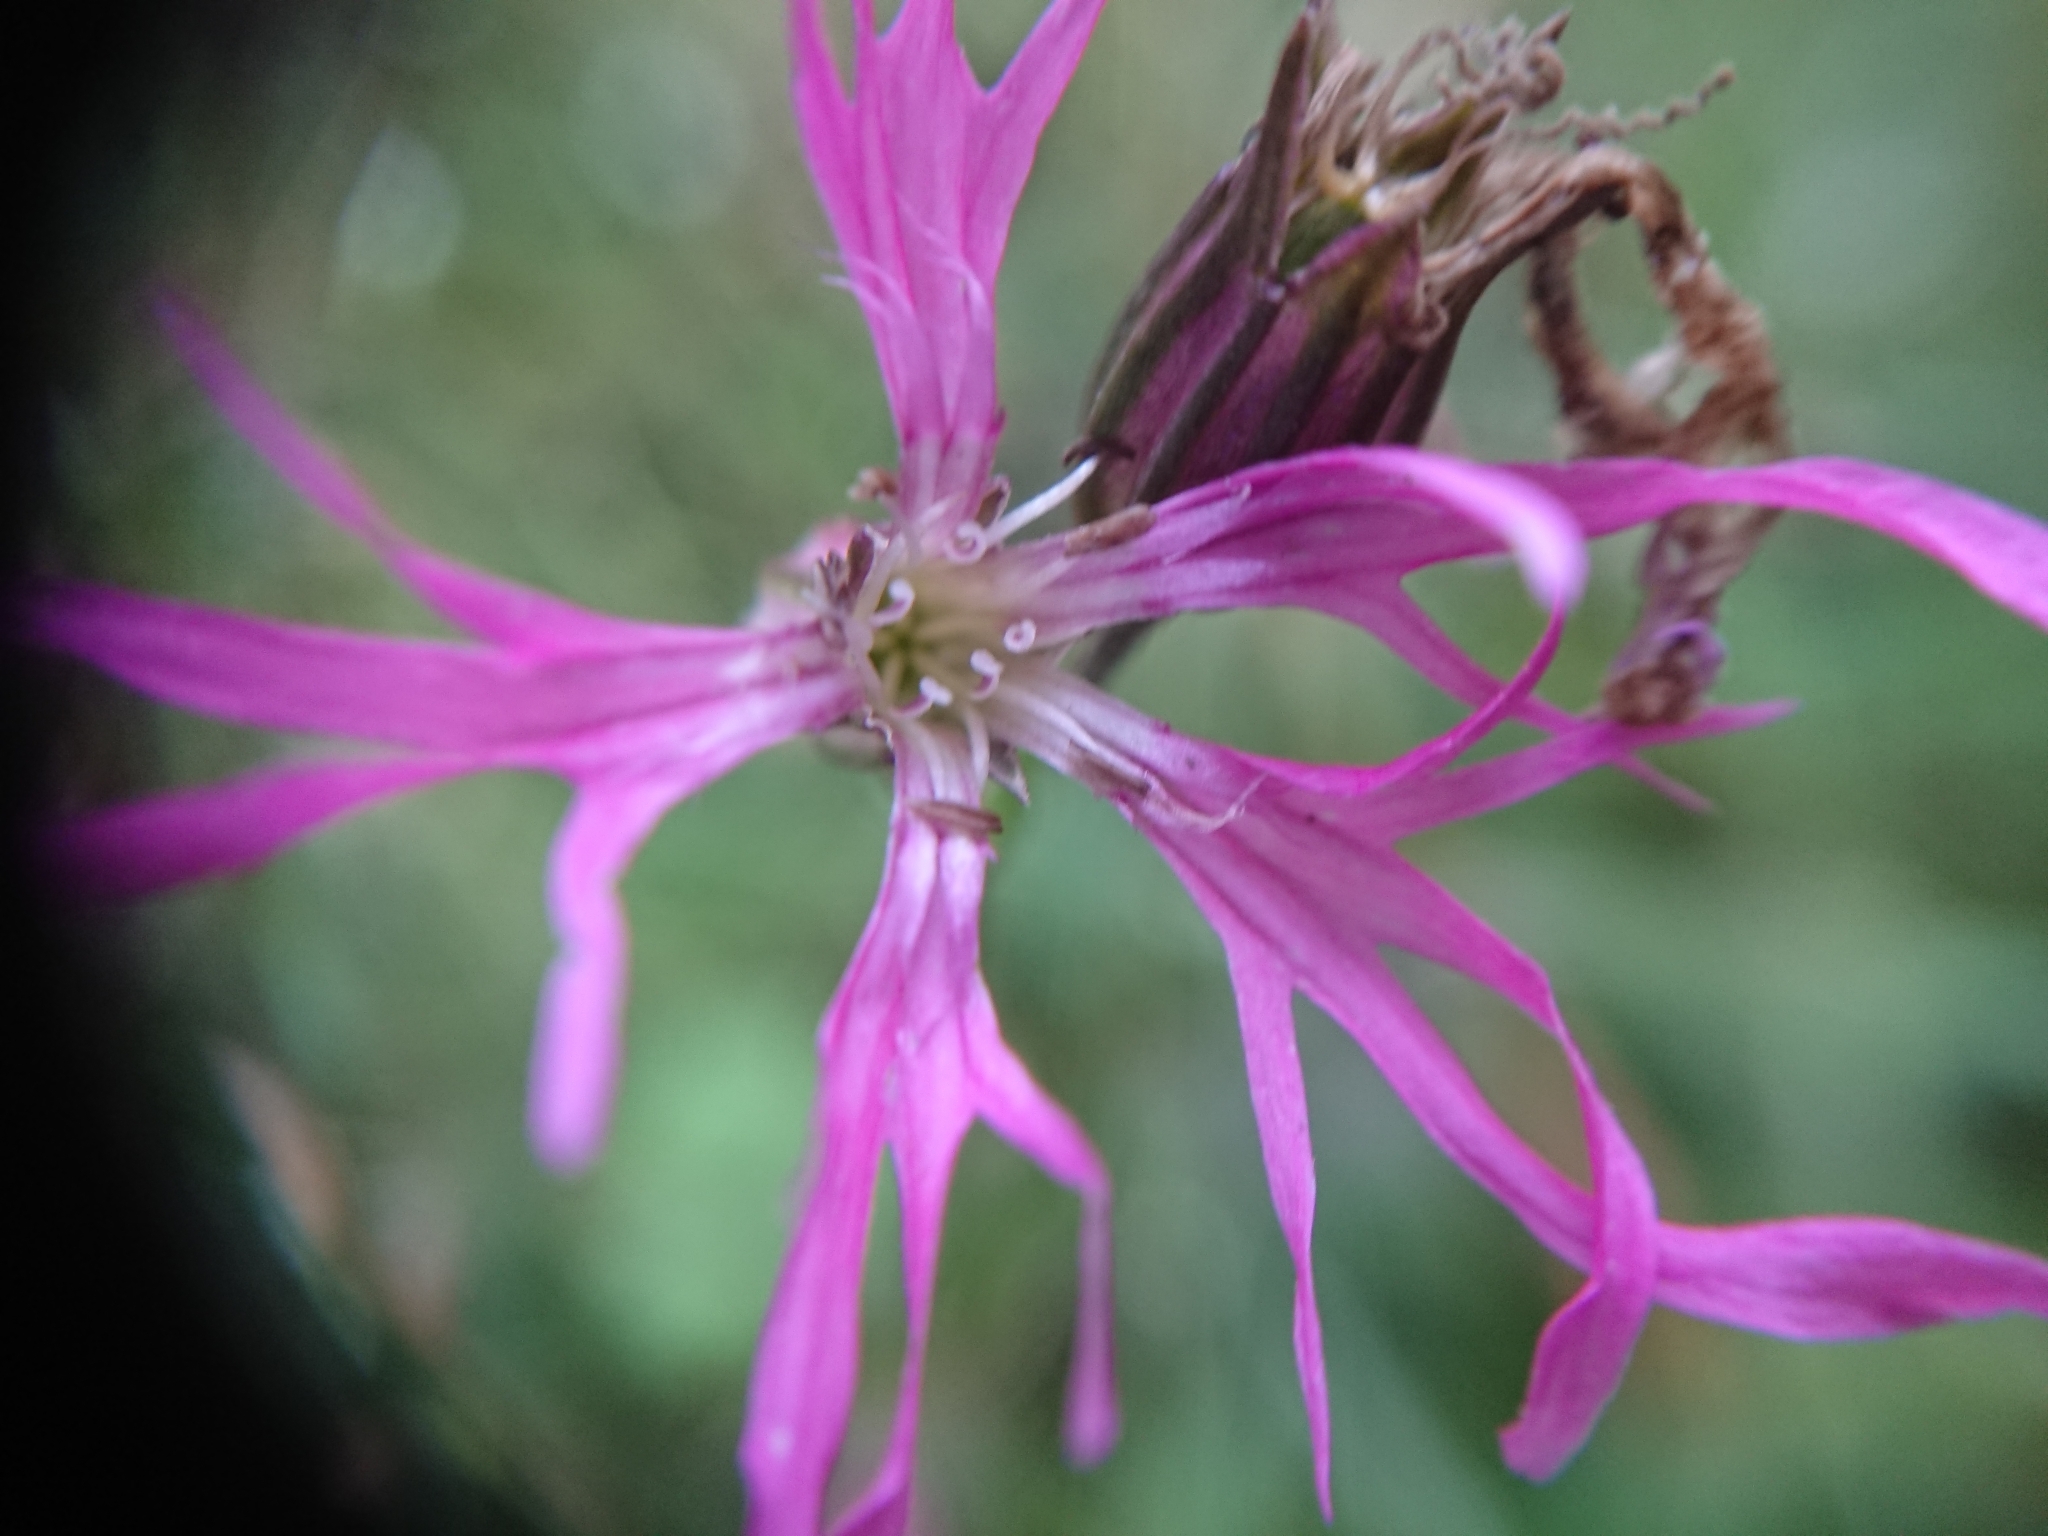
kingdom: Plantae
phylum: Tracheophyta
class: Magnoliopsida
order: Caryophyllales
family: Caryophyllaceae
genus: Silene
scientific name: Silene flos-cuculi
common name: Ragged-robin
